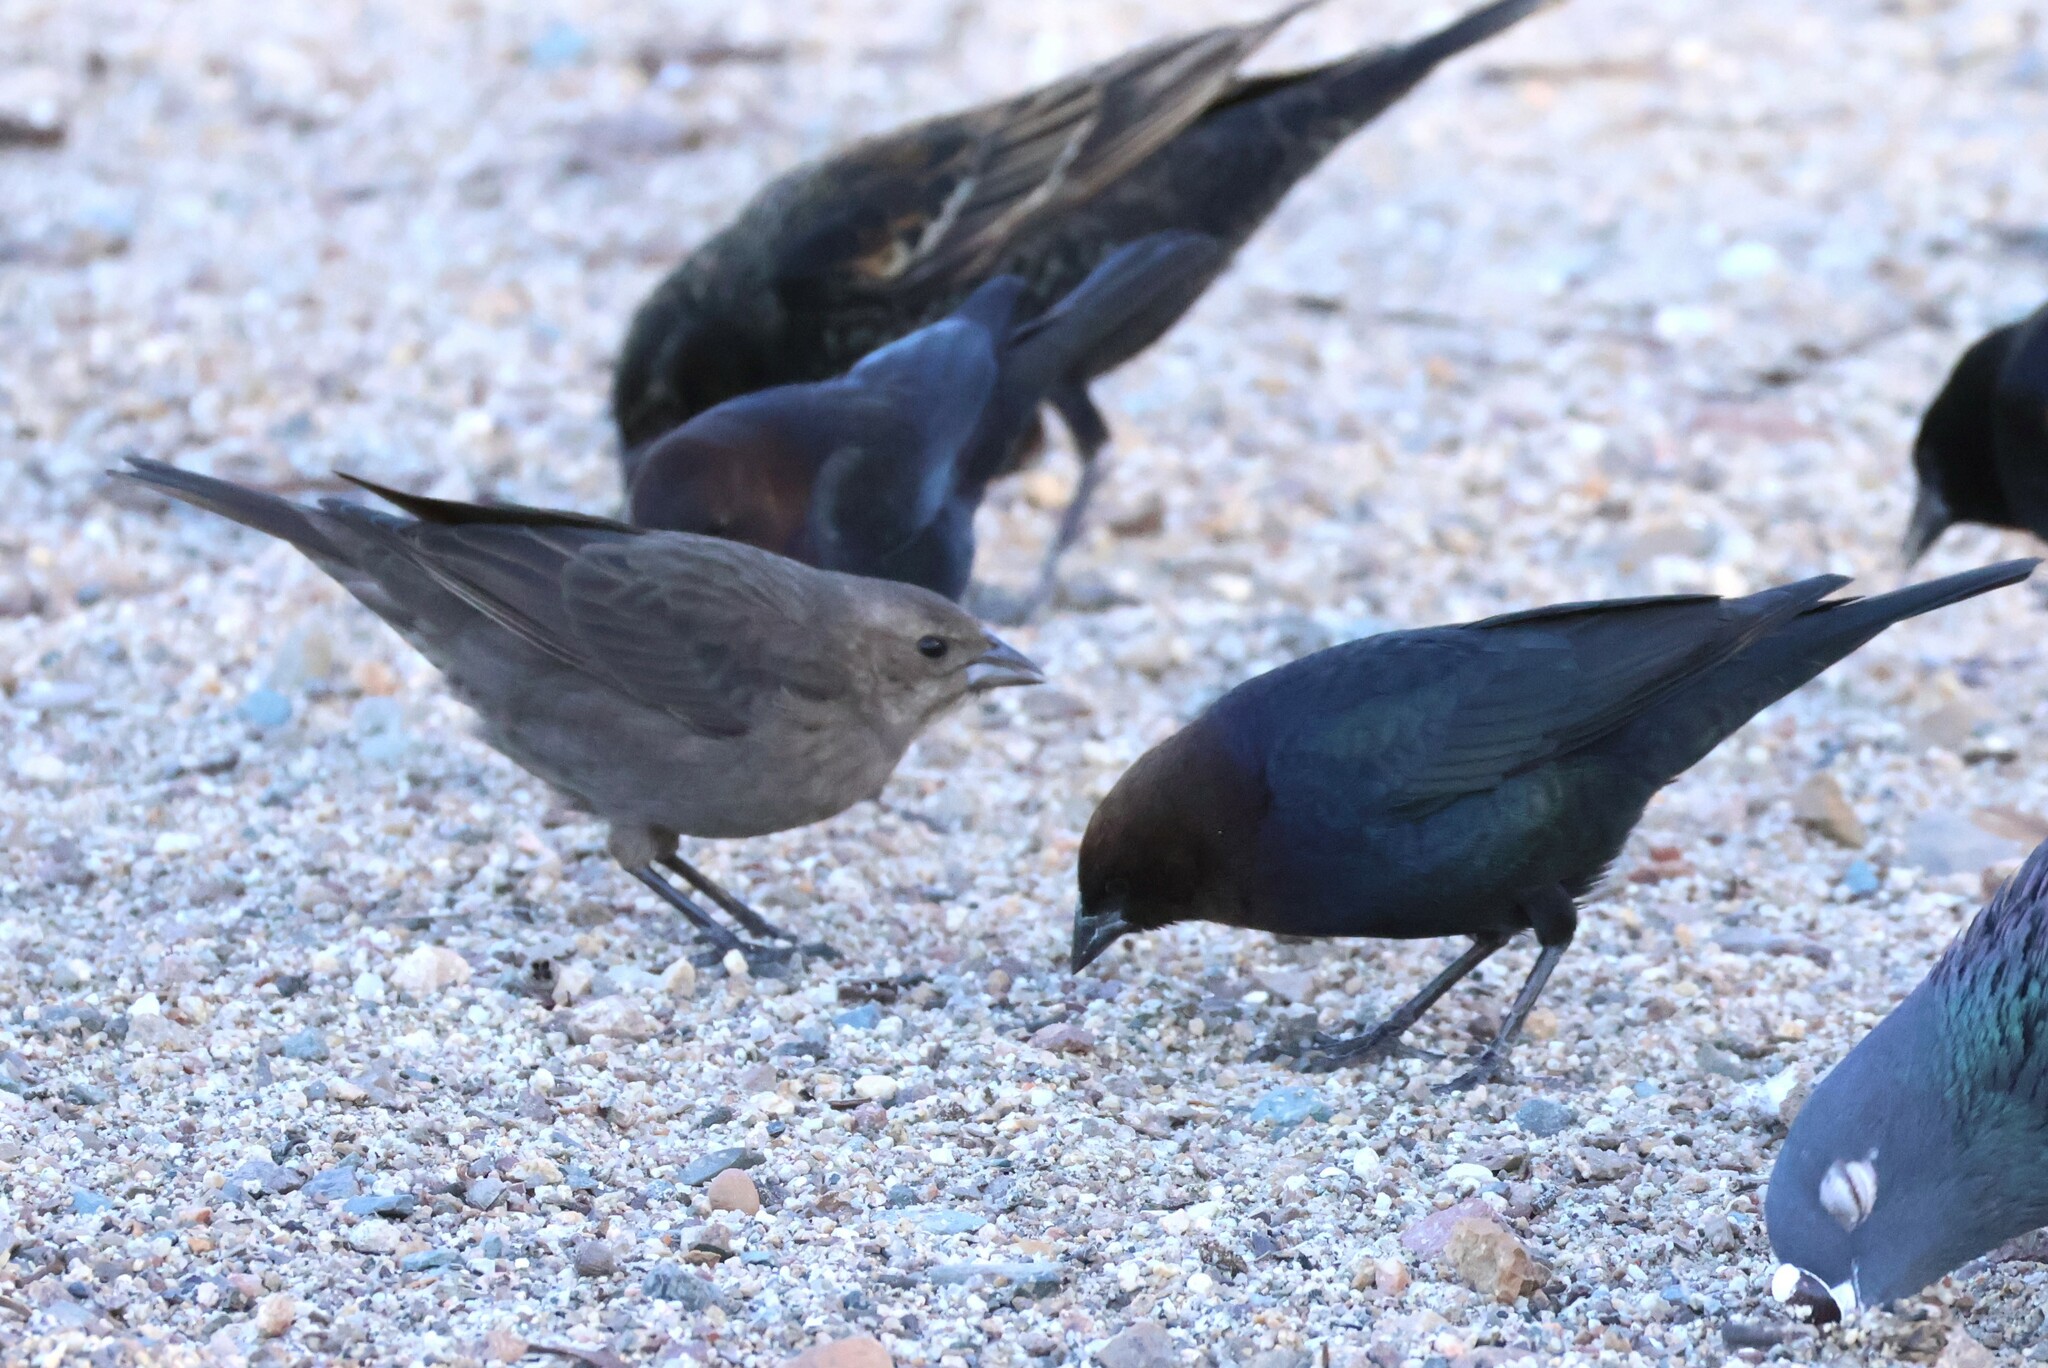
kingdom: Animalia
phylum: Chordata
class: Aves
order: Passeriformes
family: Icteridae
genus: Molothrus
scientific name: Molothrus ater
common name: Brown-headed cowbird
